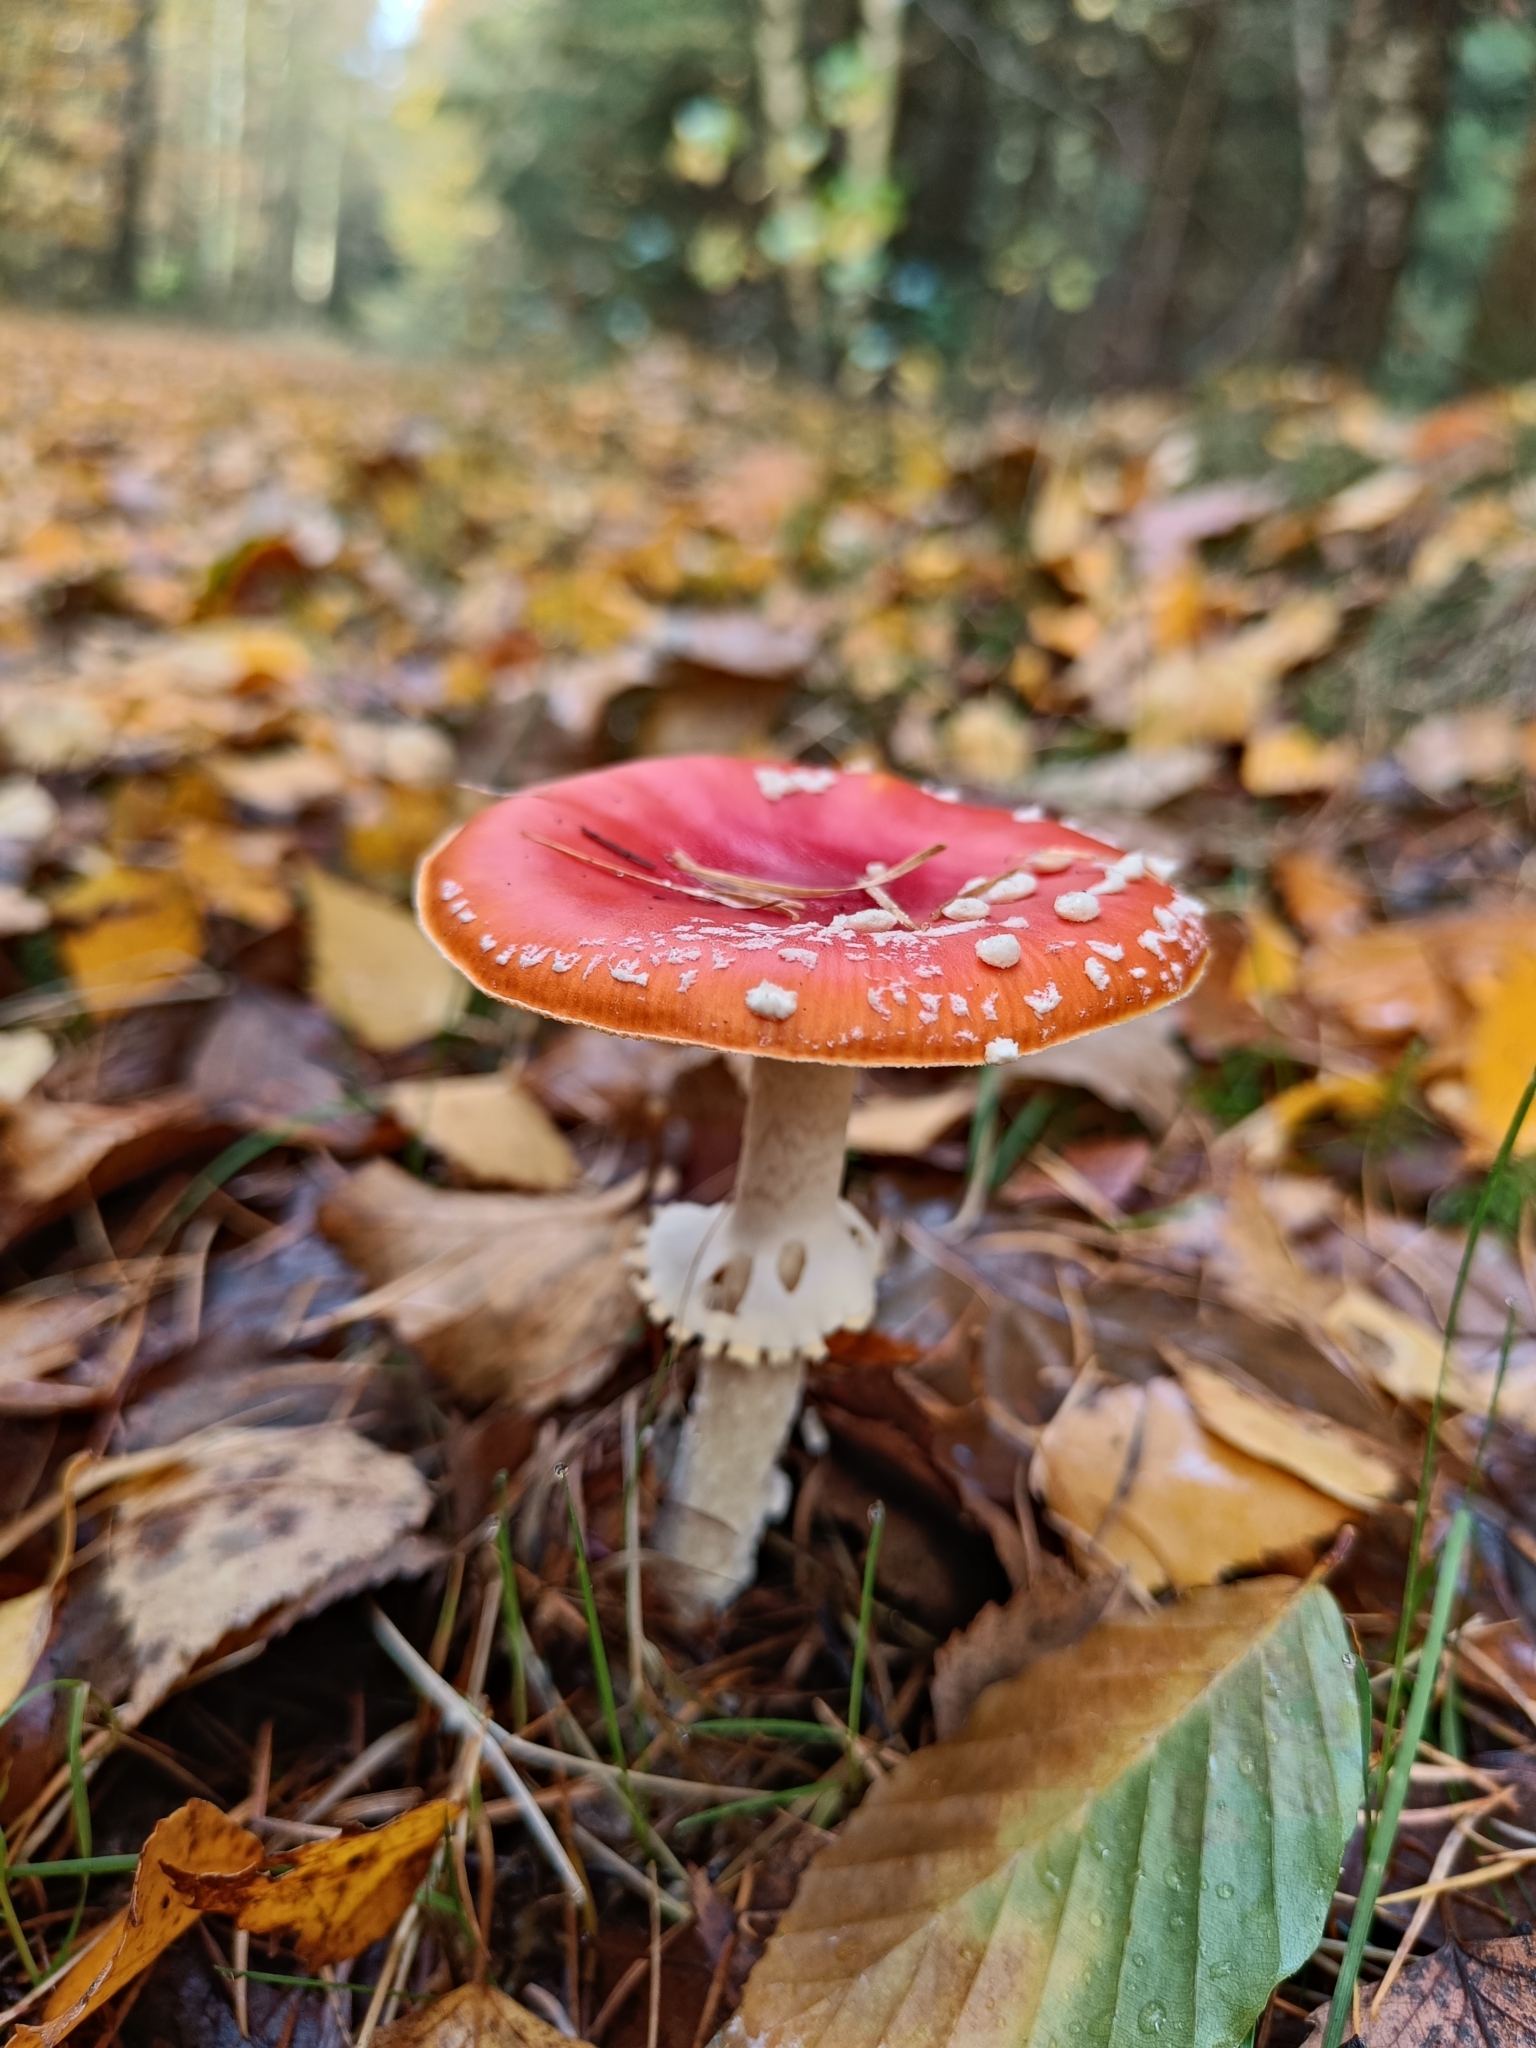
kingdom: Fungi
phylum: Basidiomycota
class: Agaricomycetes
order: Agaricales
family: Amanitaceae
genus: Amanita
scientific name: Amanita muscaria
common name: Fly agaric
